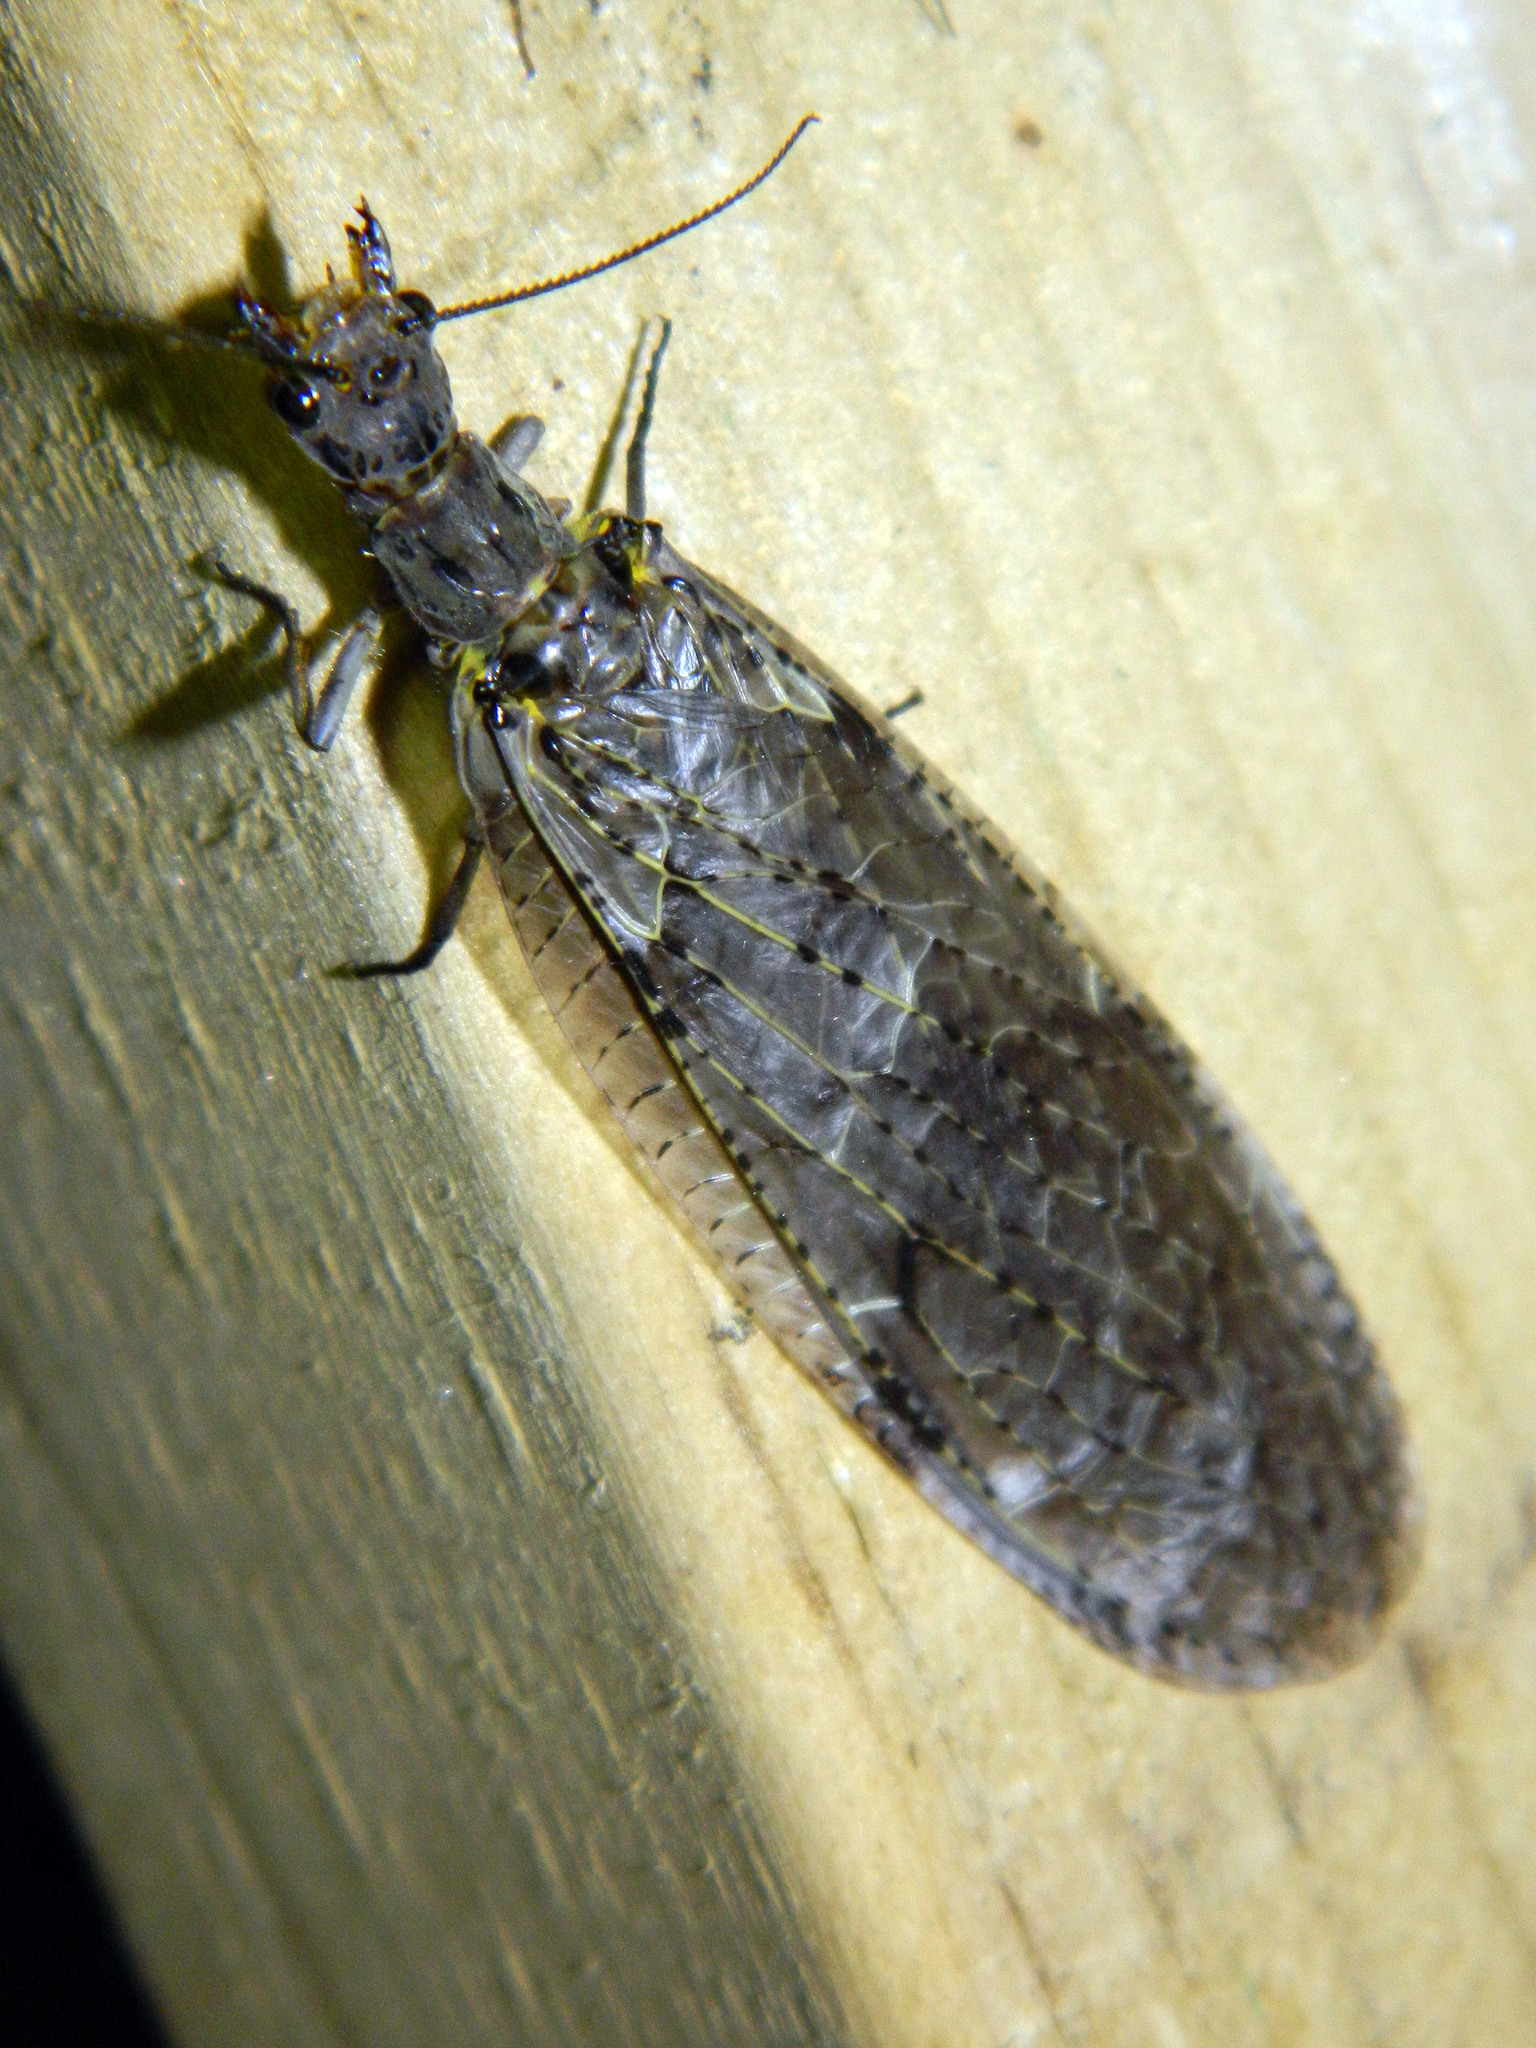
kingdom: Animalia
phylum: Arthropoda
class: Insecta
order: Megaloptera
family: Corydalidae
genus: Chauliodes
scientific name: Chauliodes rastricornis
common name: Spring fishfly
